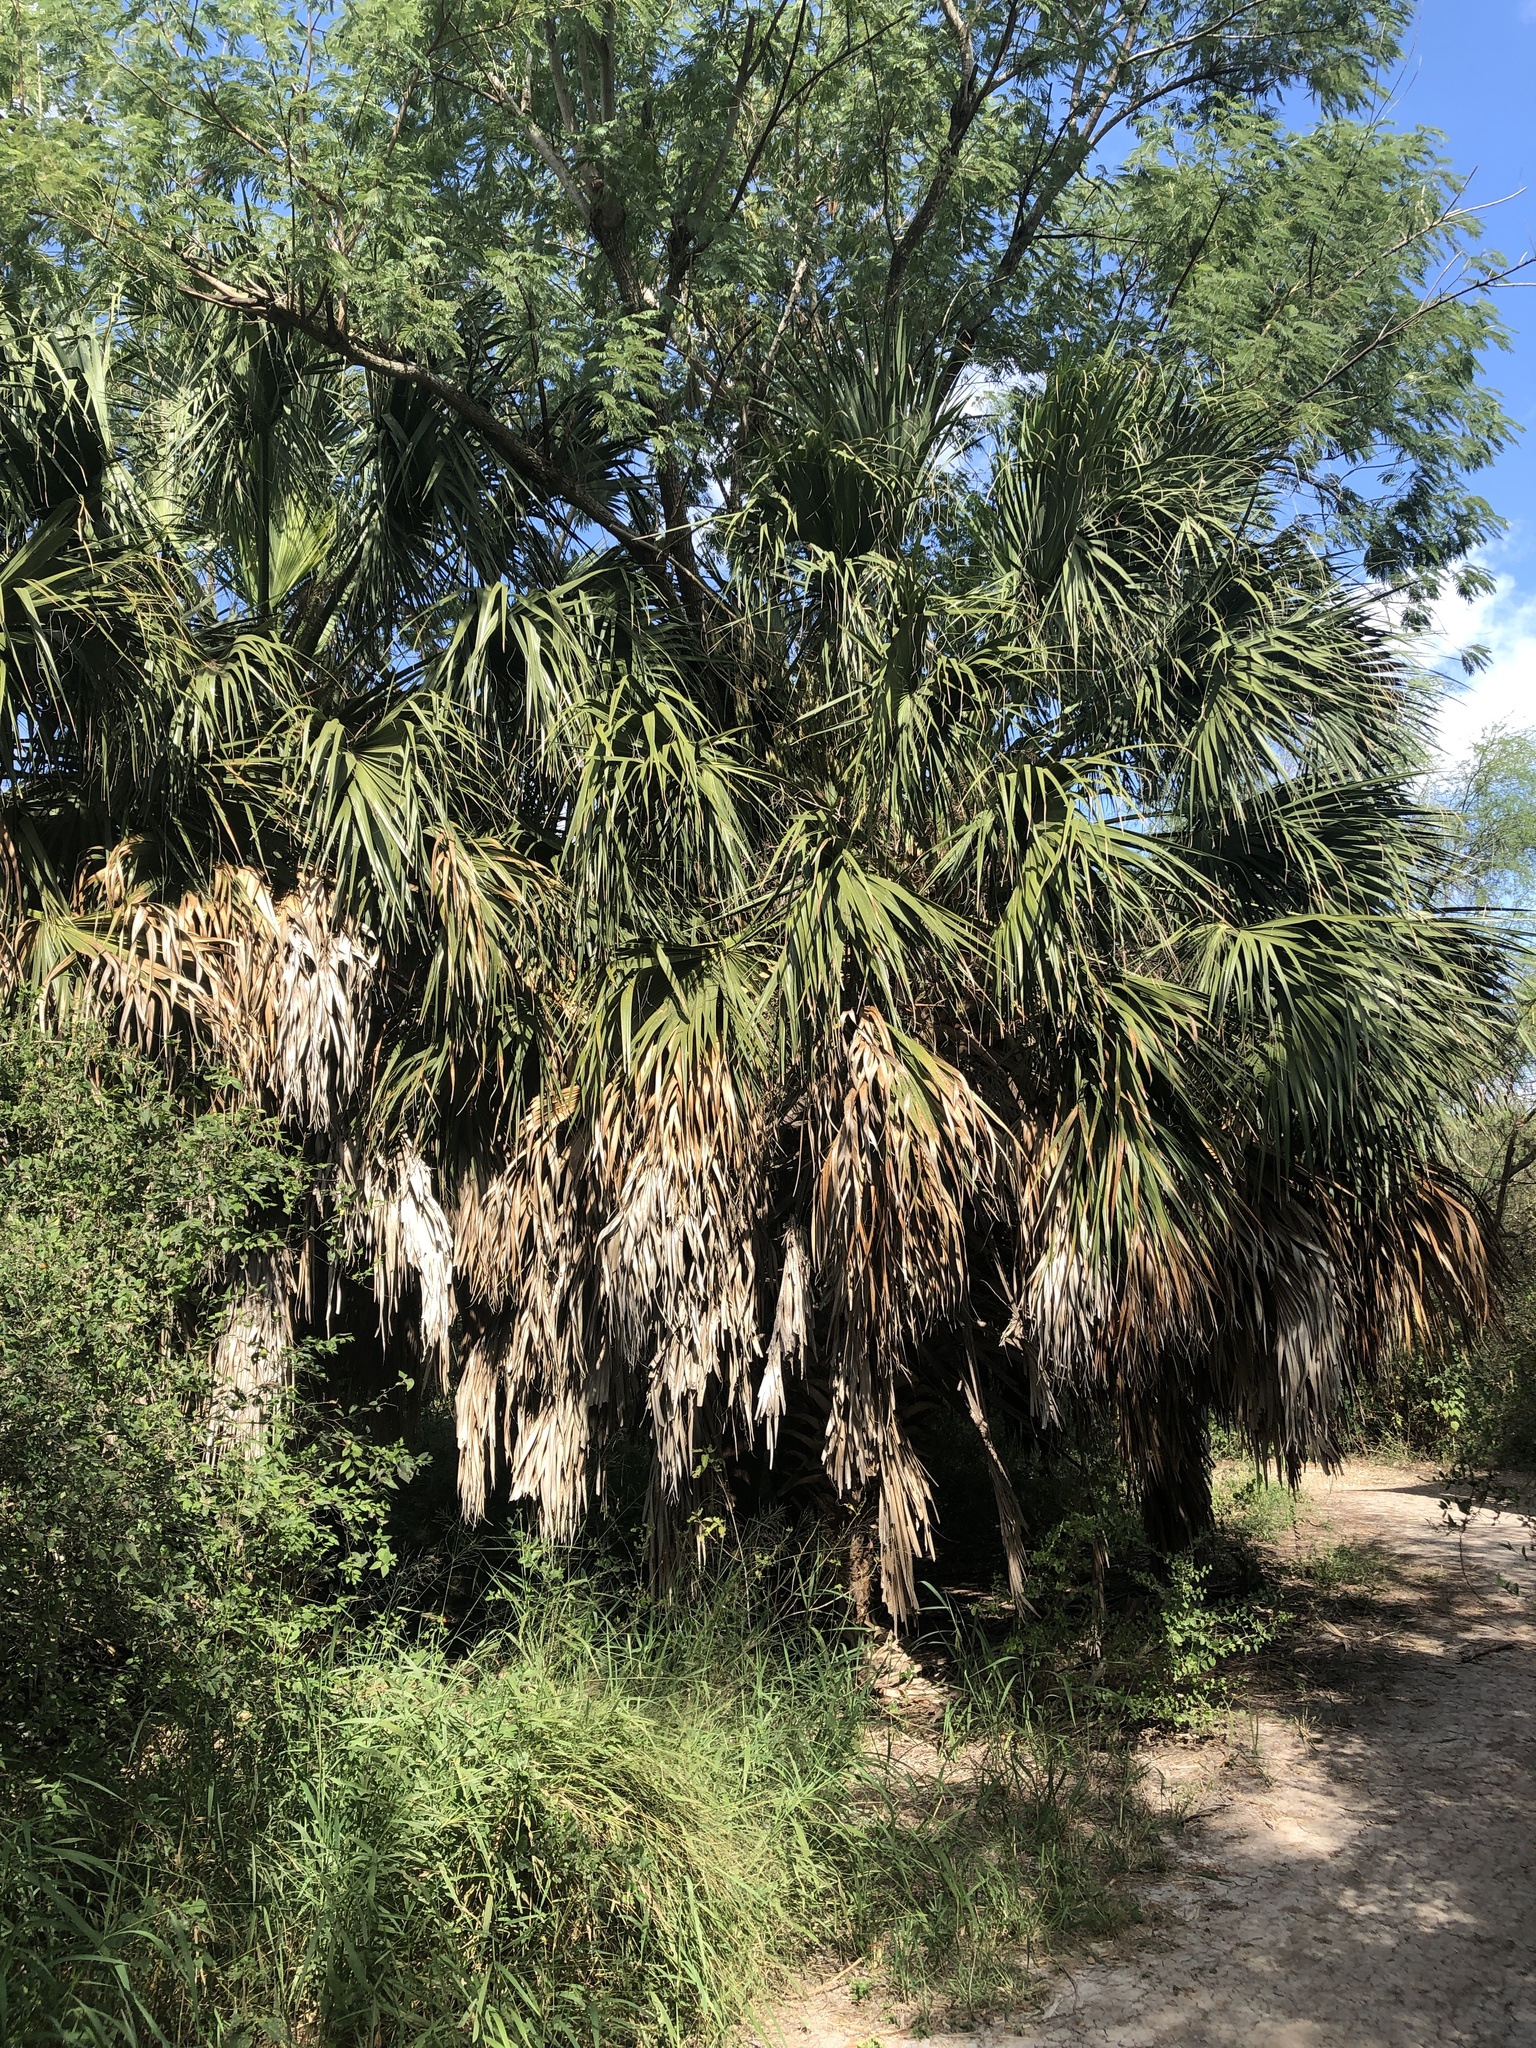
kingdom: Plantae
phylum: Tracheophyta
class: Liliopsida
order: Arecales
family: Arecaceae
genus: Sabal
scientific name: Sabal mexicana
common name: Texas palmetto
